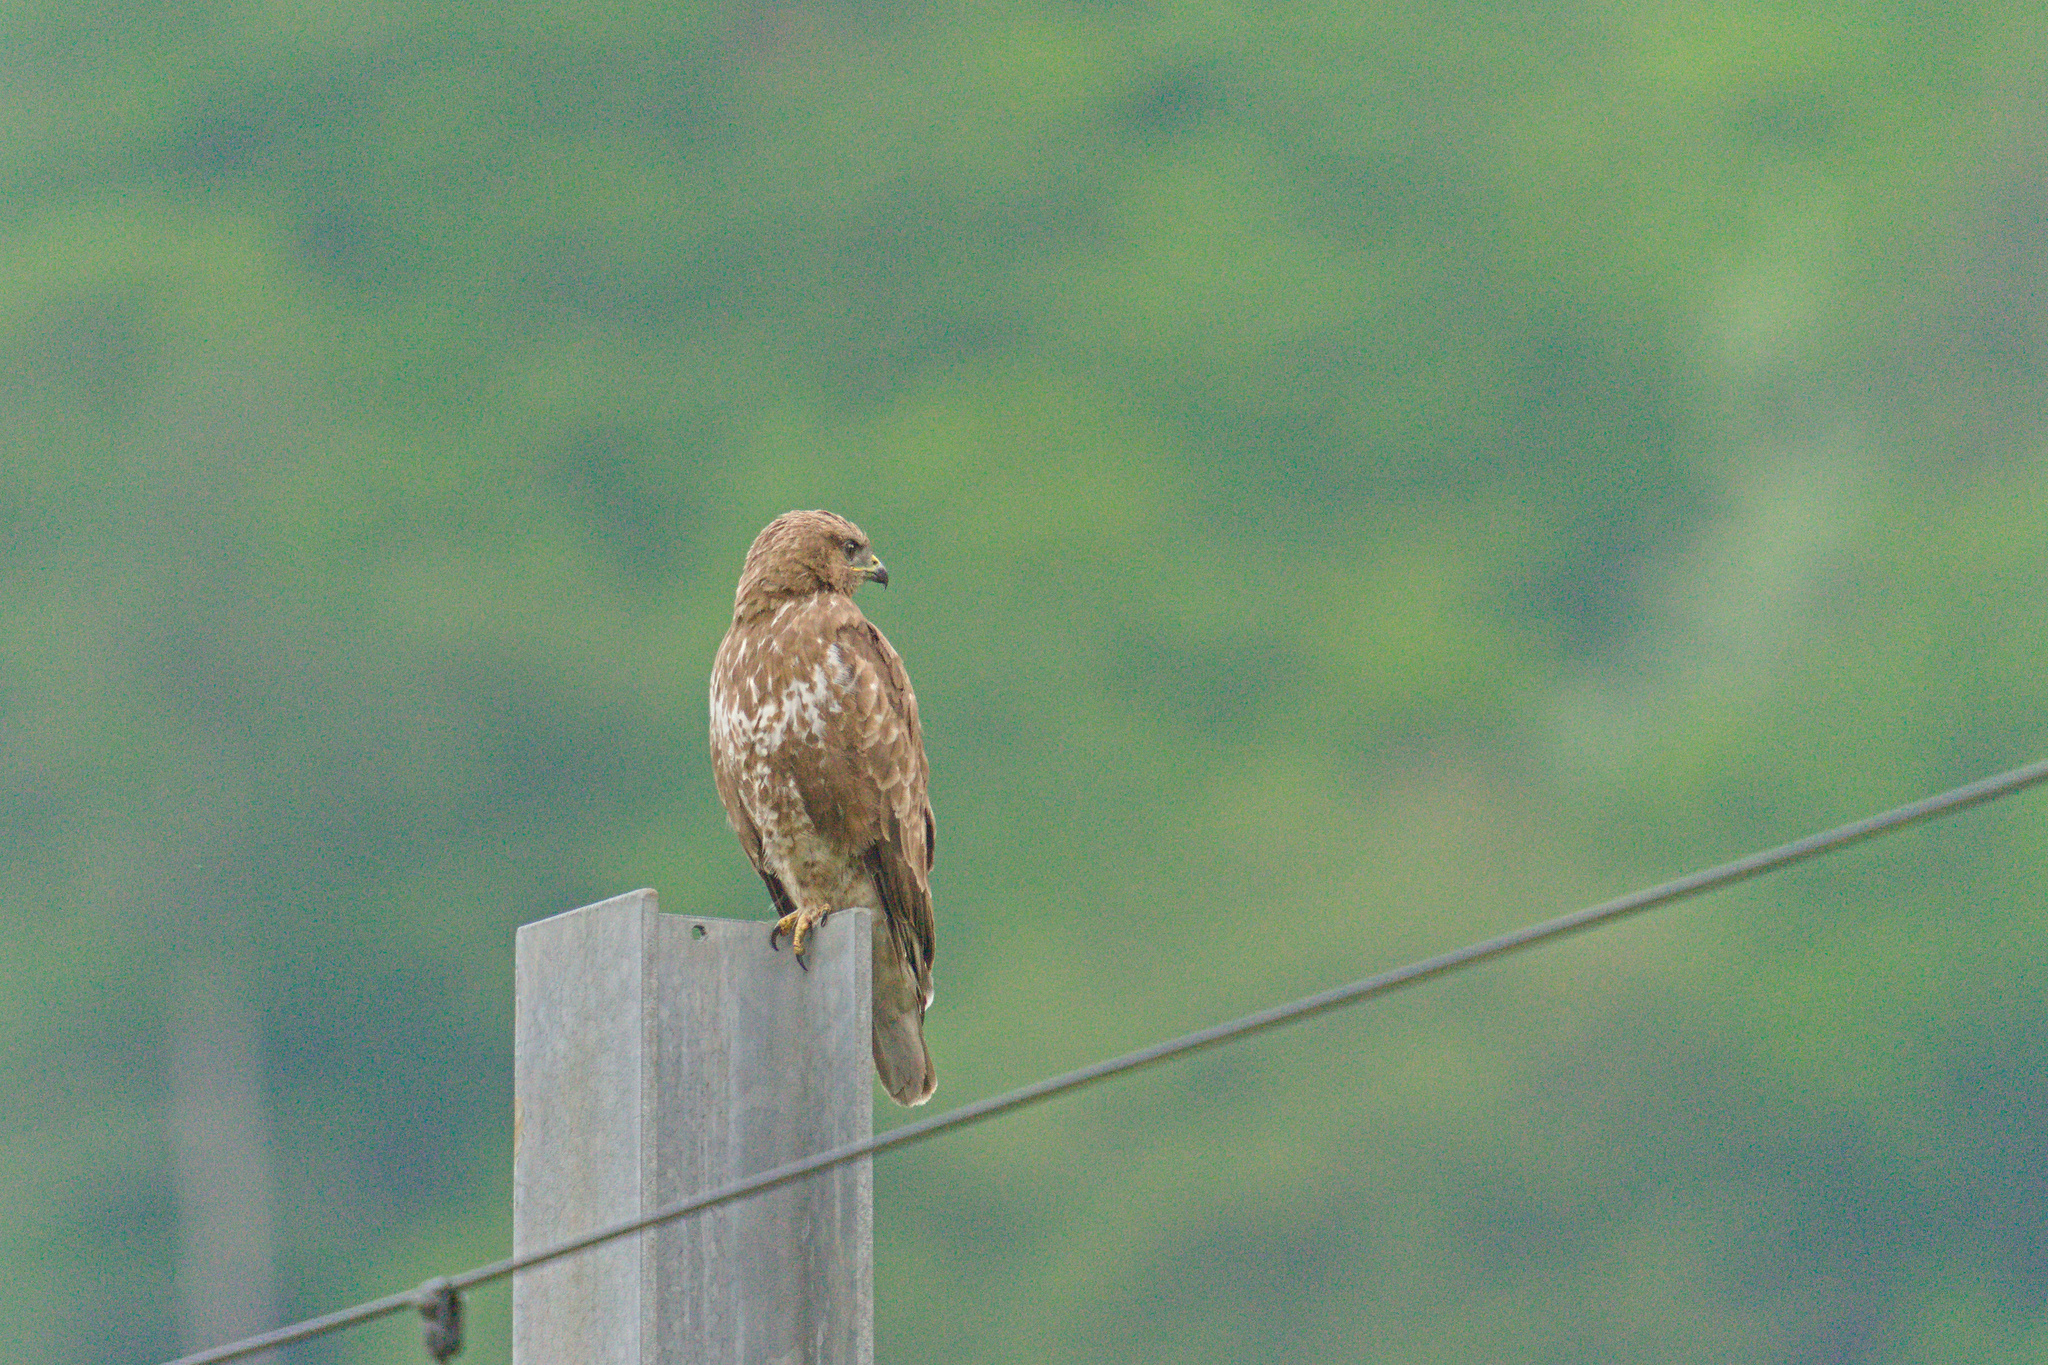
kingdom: Animalia
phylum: Chordata
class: Aves
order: Accipitriformes
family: Accipitridae
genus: Buteo
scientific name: Buteo buteo
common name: Common buzzard
